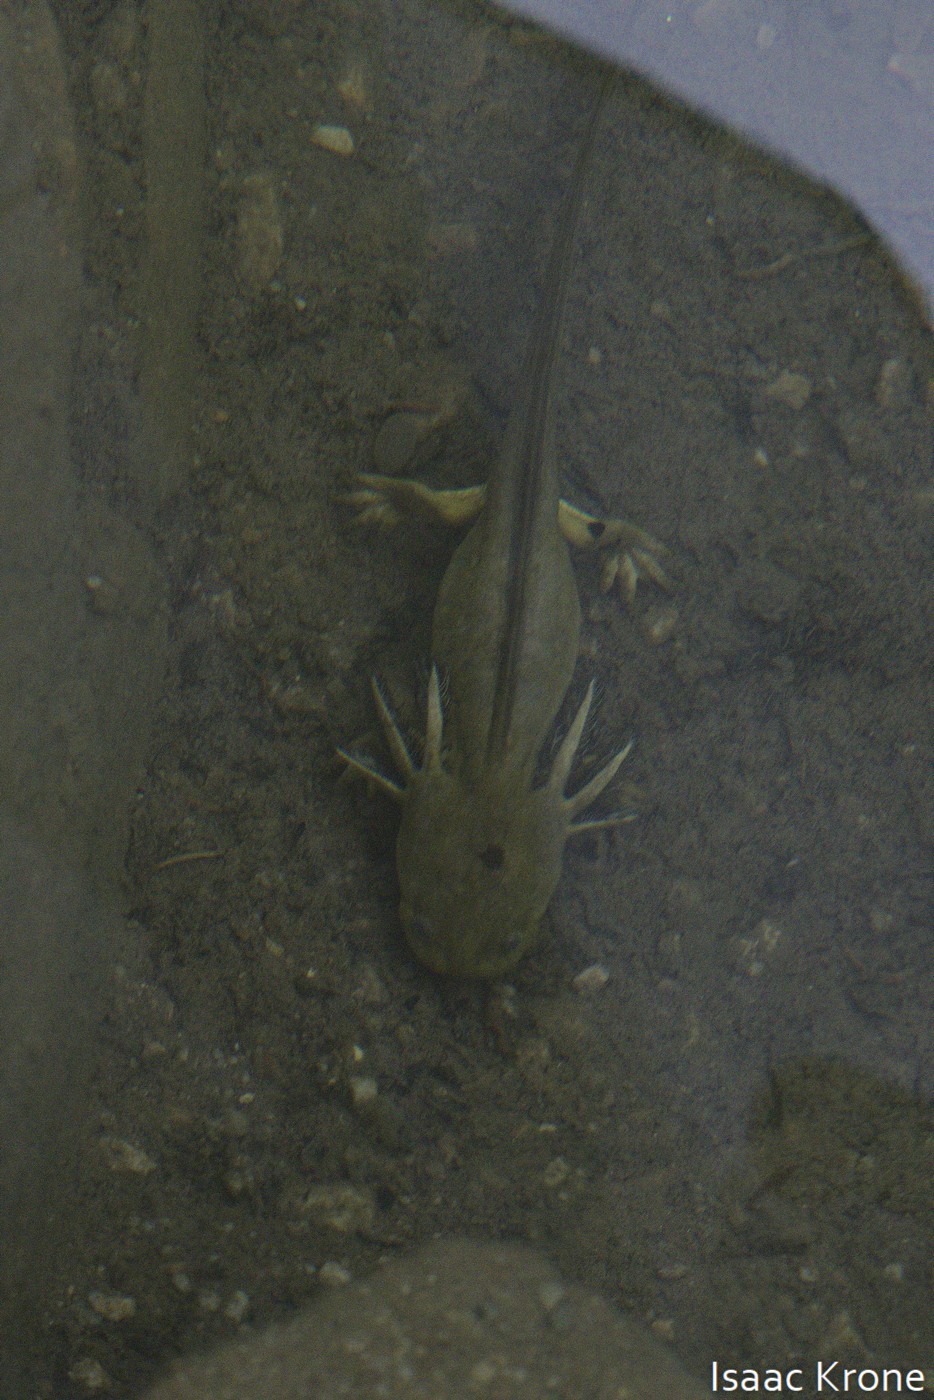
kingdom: Animalia
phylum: Chordata
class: Amphibia
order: Caudata
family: Ambystomatidae
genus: Ambystoma
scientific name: Ambystoma mavortium
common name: Western tiger salamander
